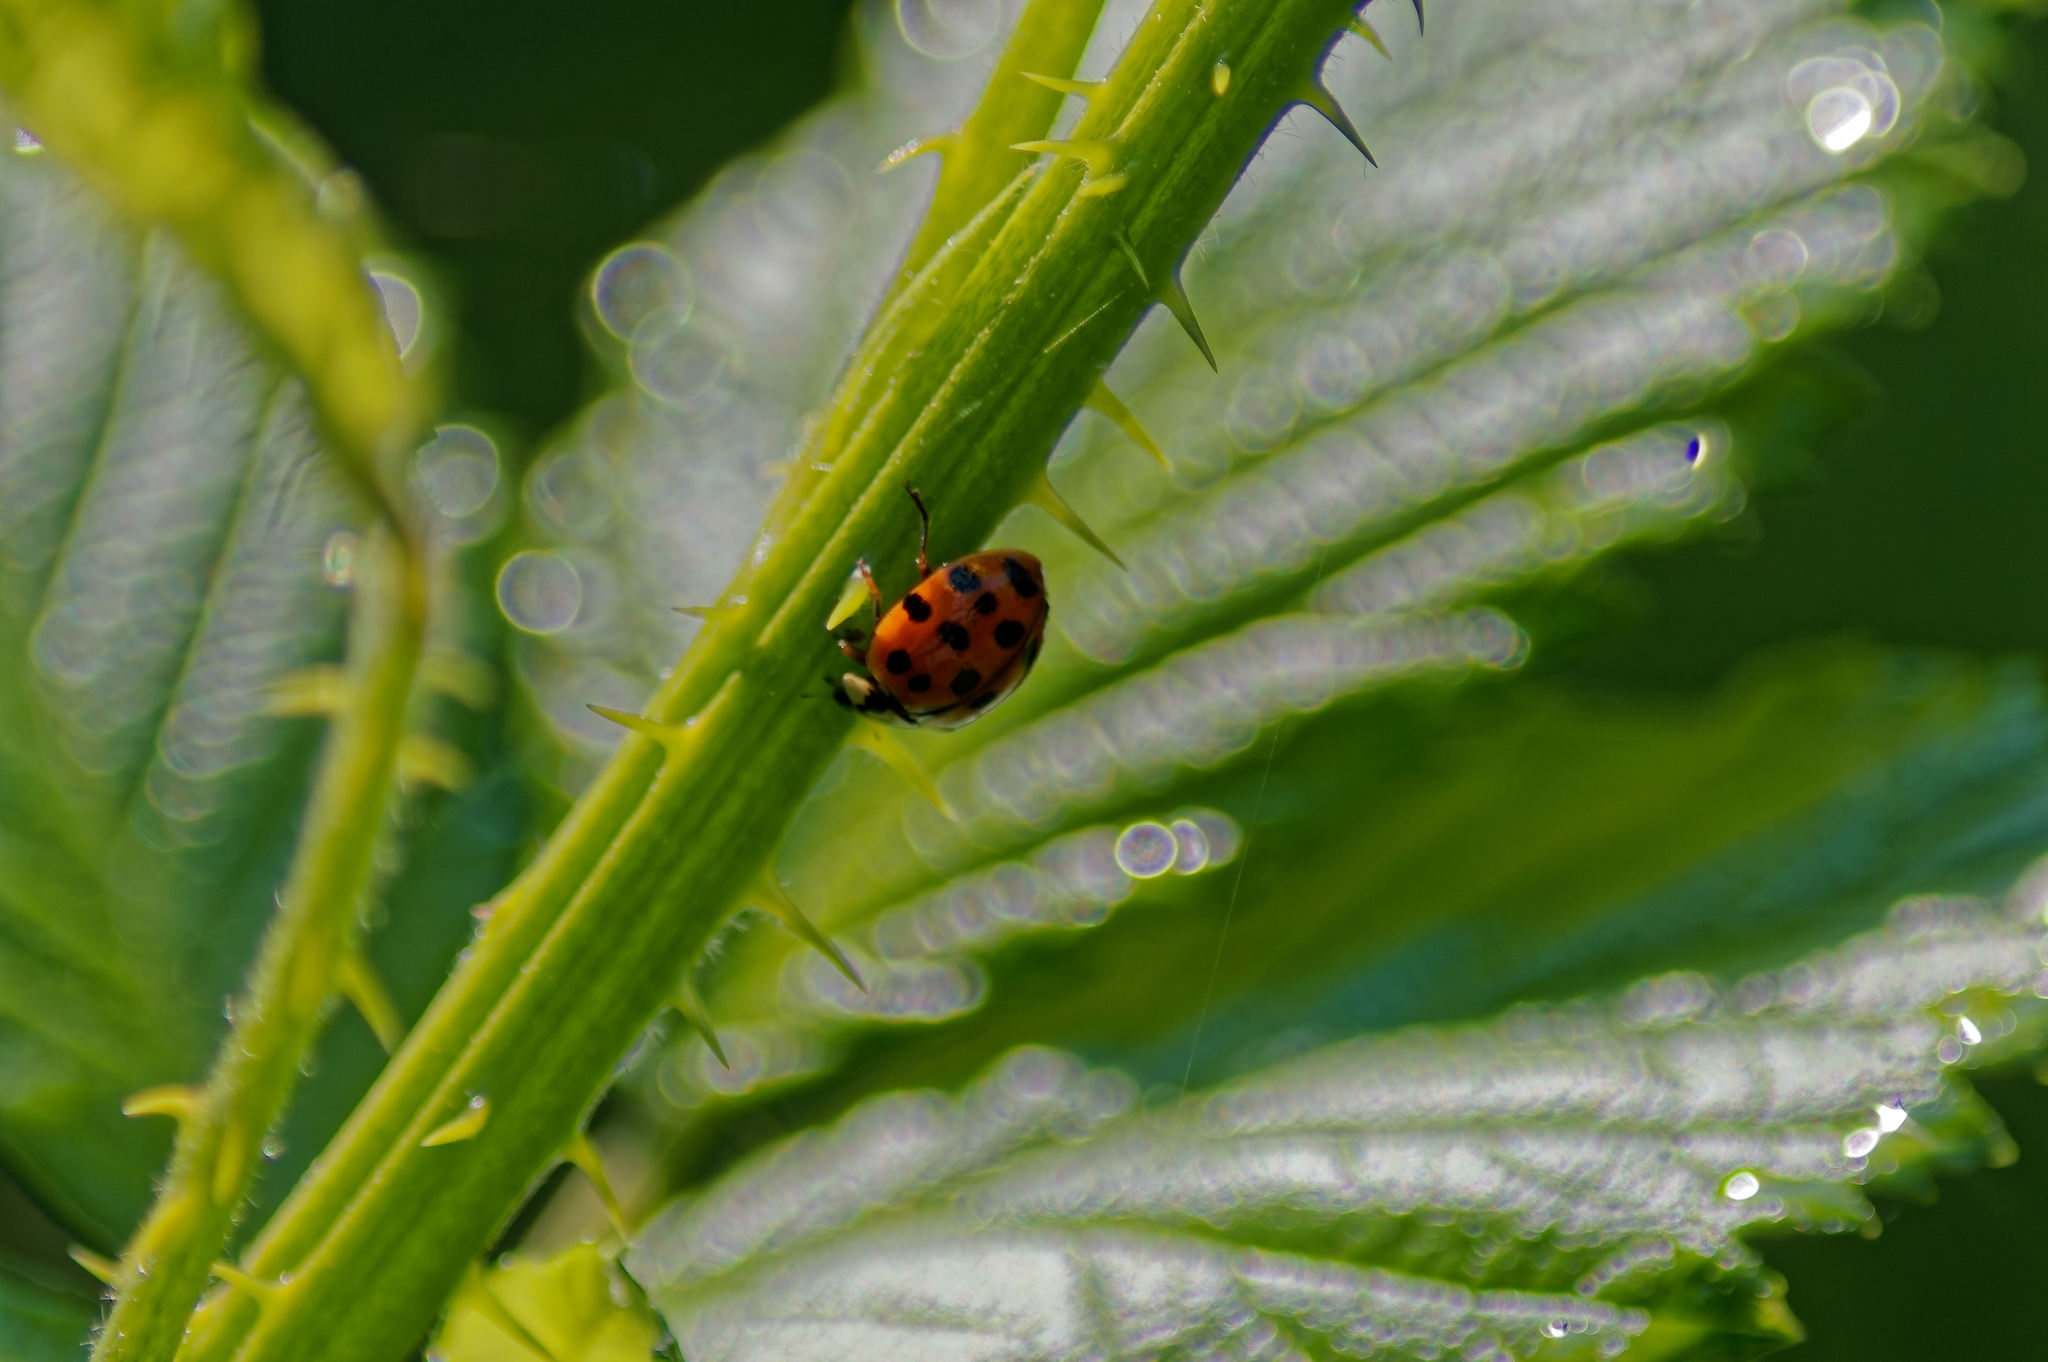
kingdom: Animalia
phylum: Arthropoda
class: Insecta
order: Coleoptera
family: Coccinellidae
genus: Harmonia
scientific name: Harmonia axyridis
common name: Harlequin ladybird
